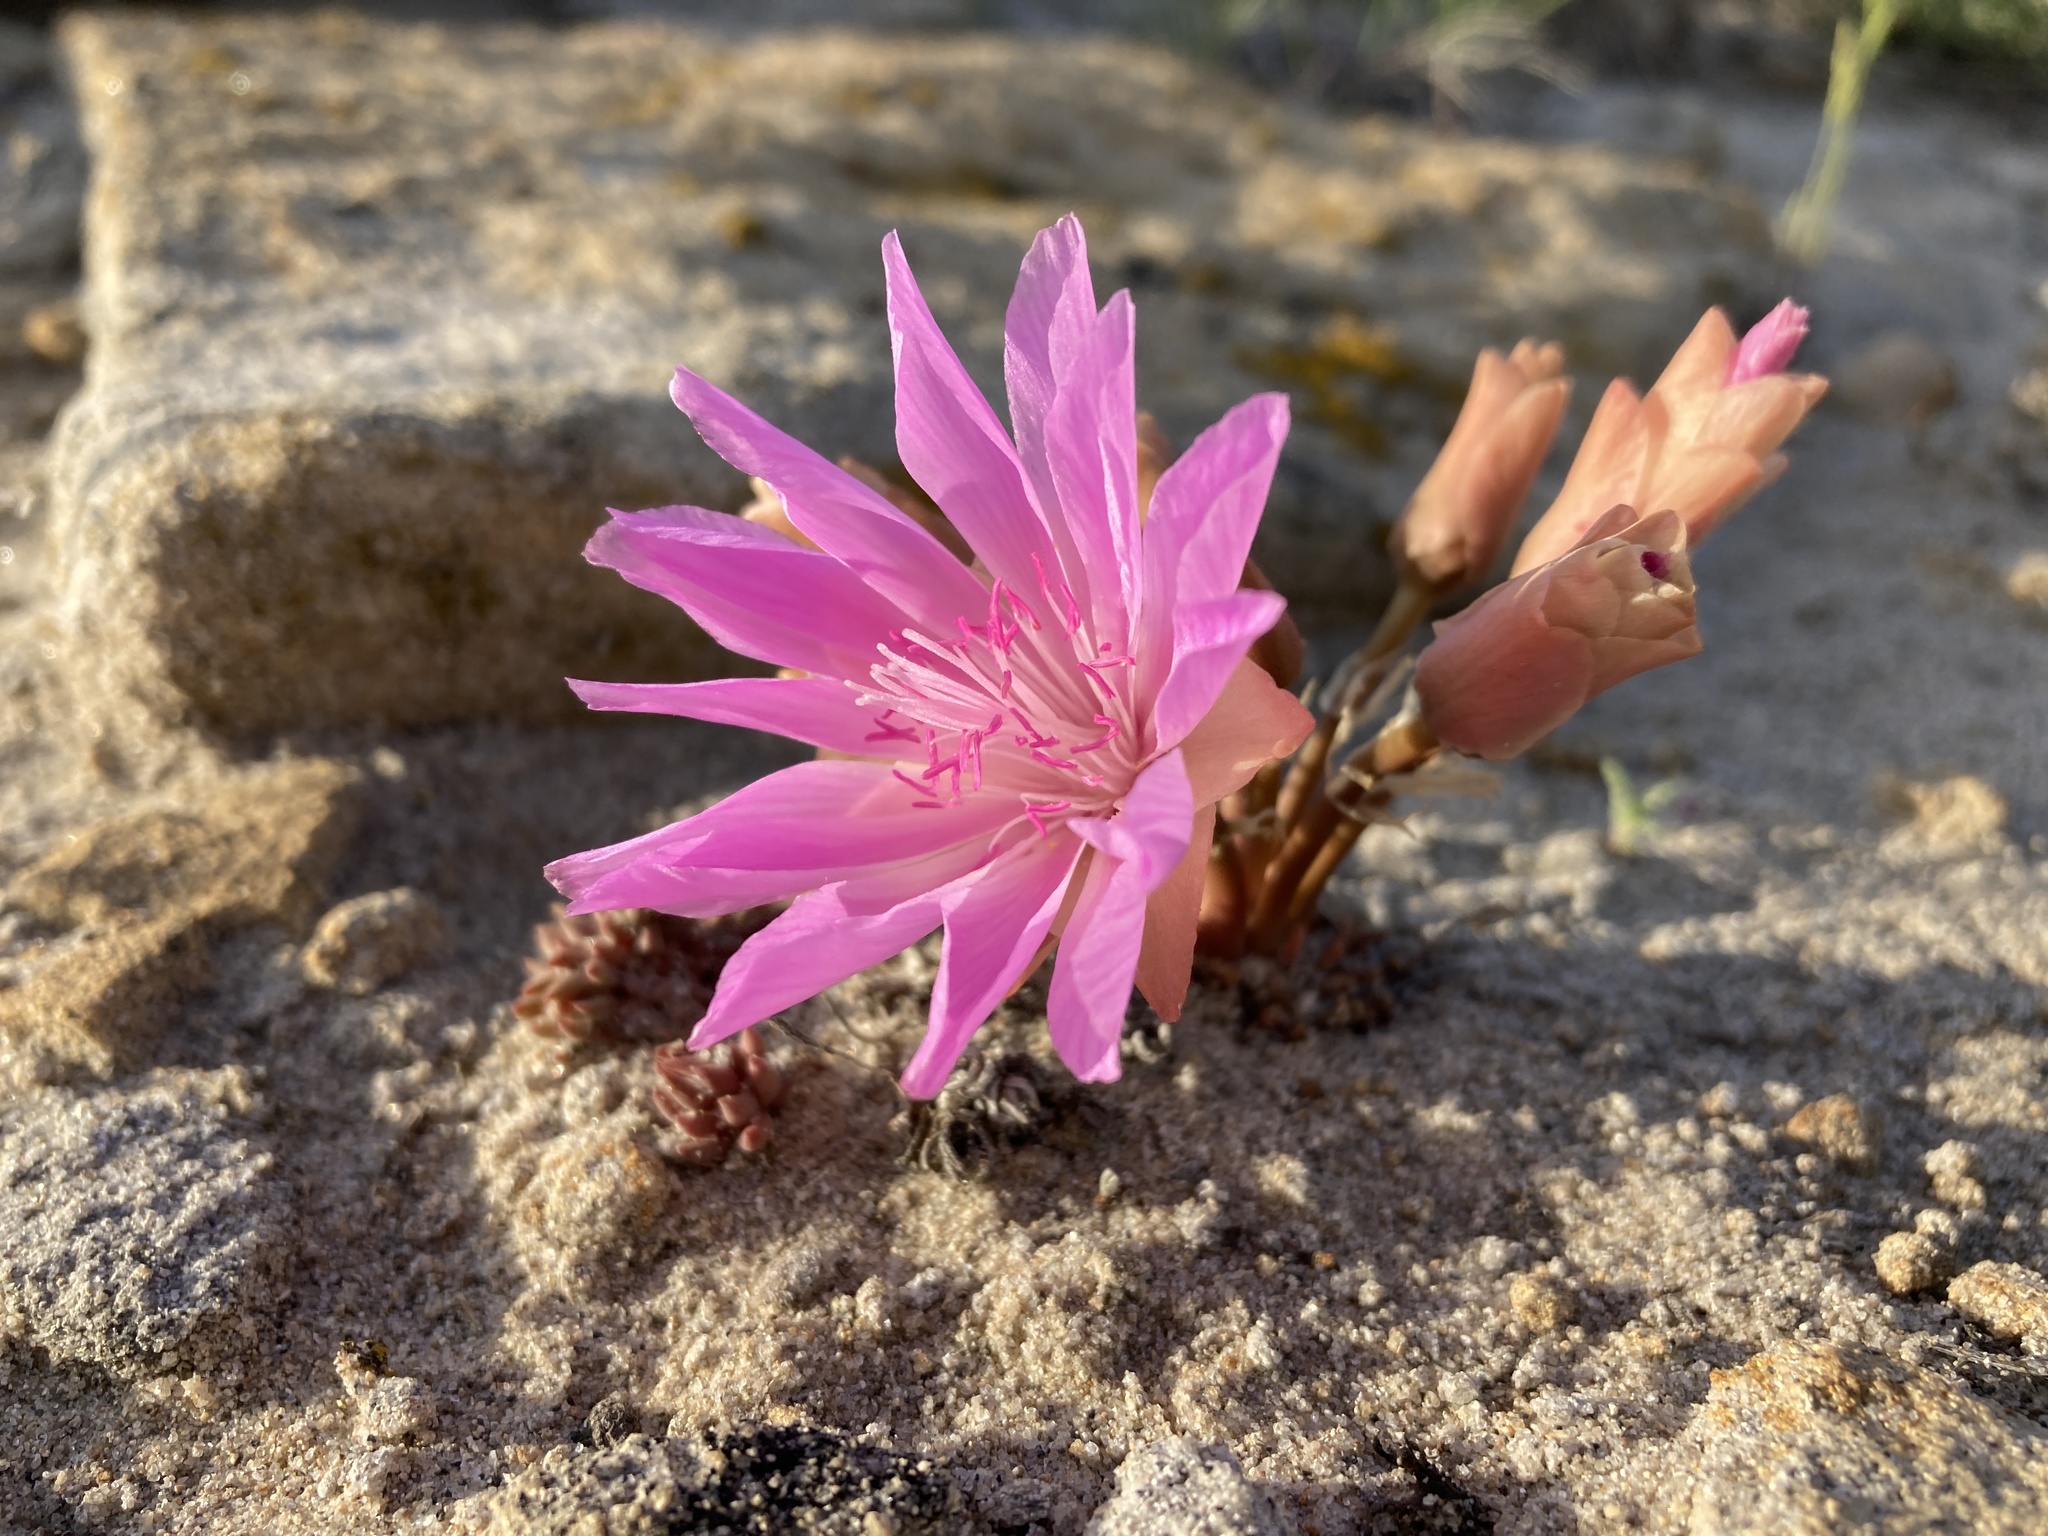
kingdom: Plantae
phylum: Tracheophyta
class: Magnoliopsida
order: Caryophyllales
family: Montiaceae
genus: Lewisia
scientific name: Lewisia rediviva
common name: Bitter-root
